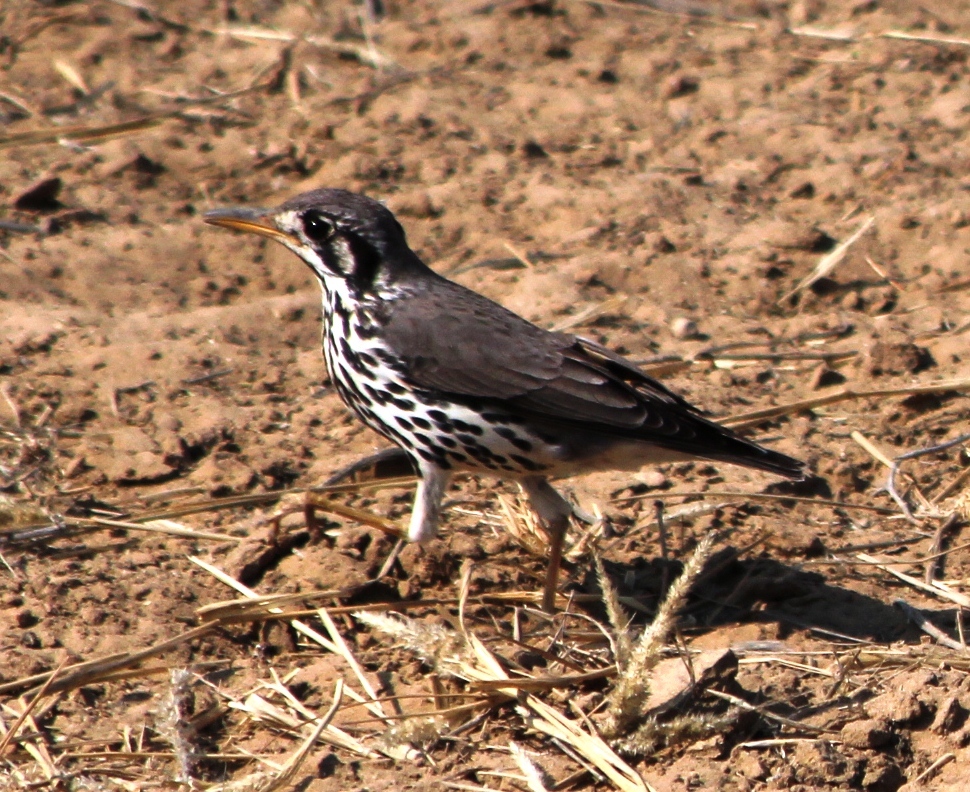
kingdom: Animalia
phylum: Chordata
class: Aves
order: Passeriformes
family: Turdidae
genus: Psophocichla
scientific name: Psophocichla litsitsirupa
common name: Groundscraper thrush
